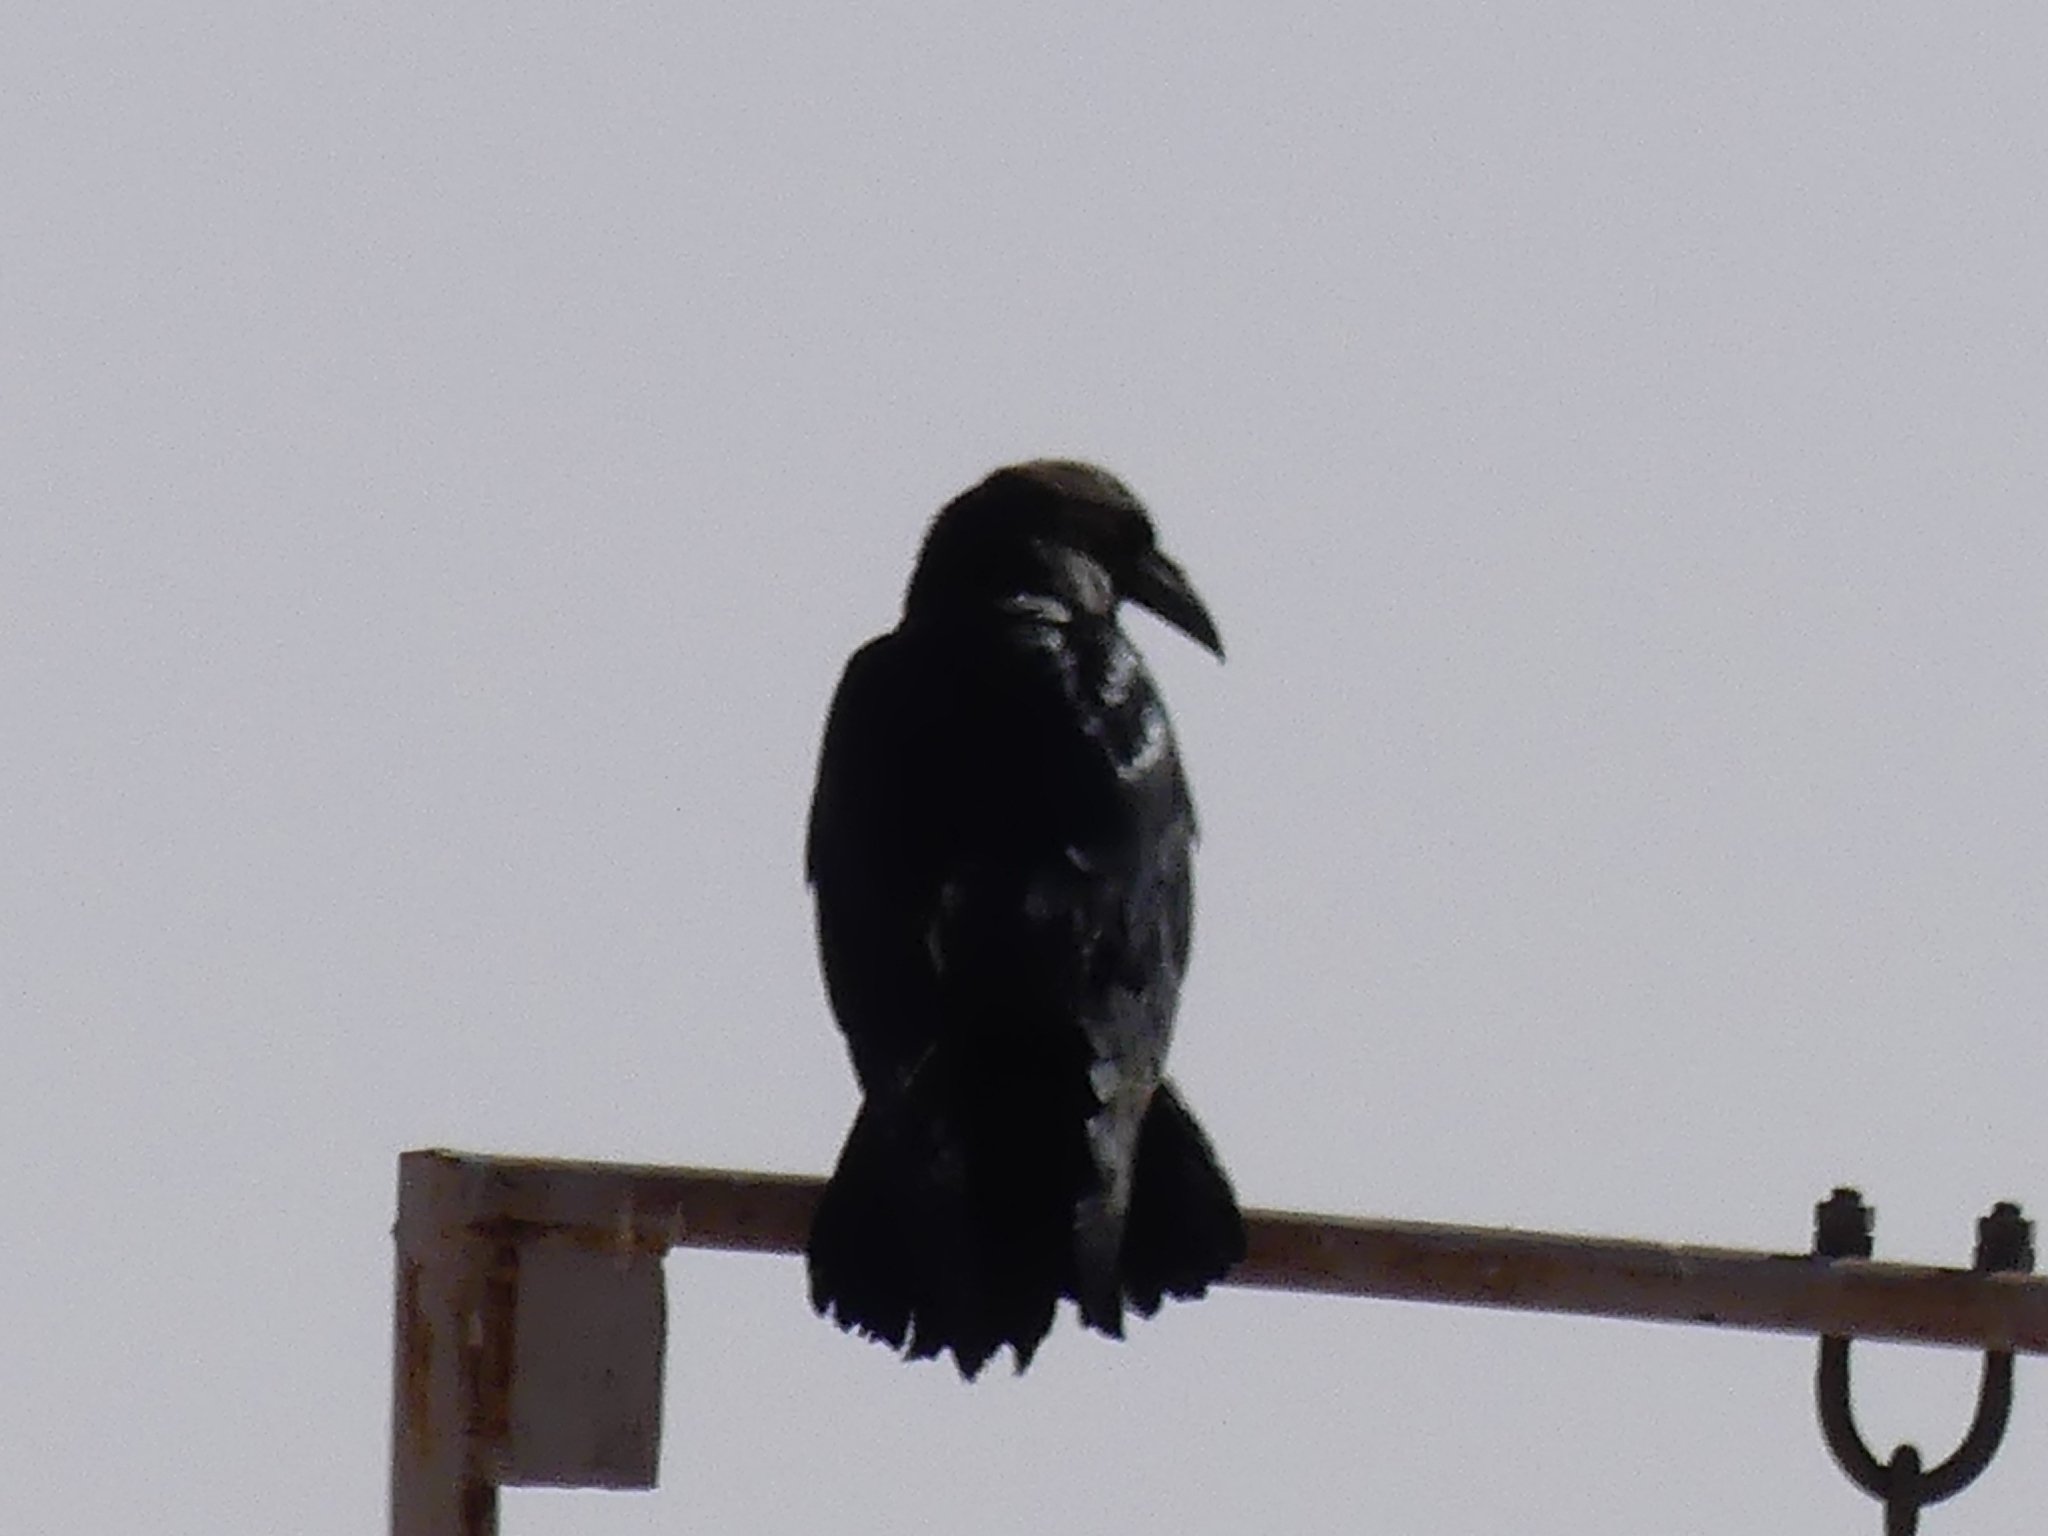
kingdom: Animalia
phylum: Chordata
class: Aves
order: Passeriformes
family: Corvidae
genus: Corvus
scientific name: Corvus ruficollis
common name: Brown-necked raven
